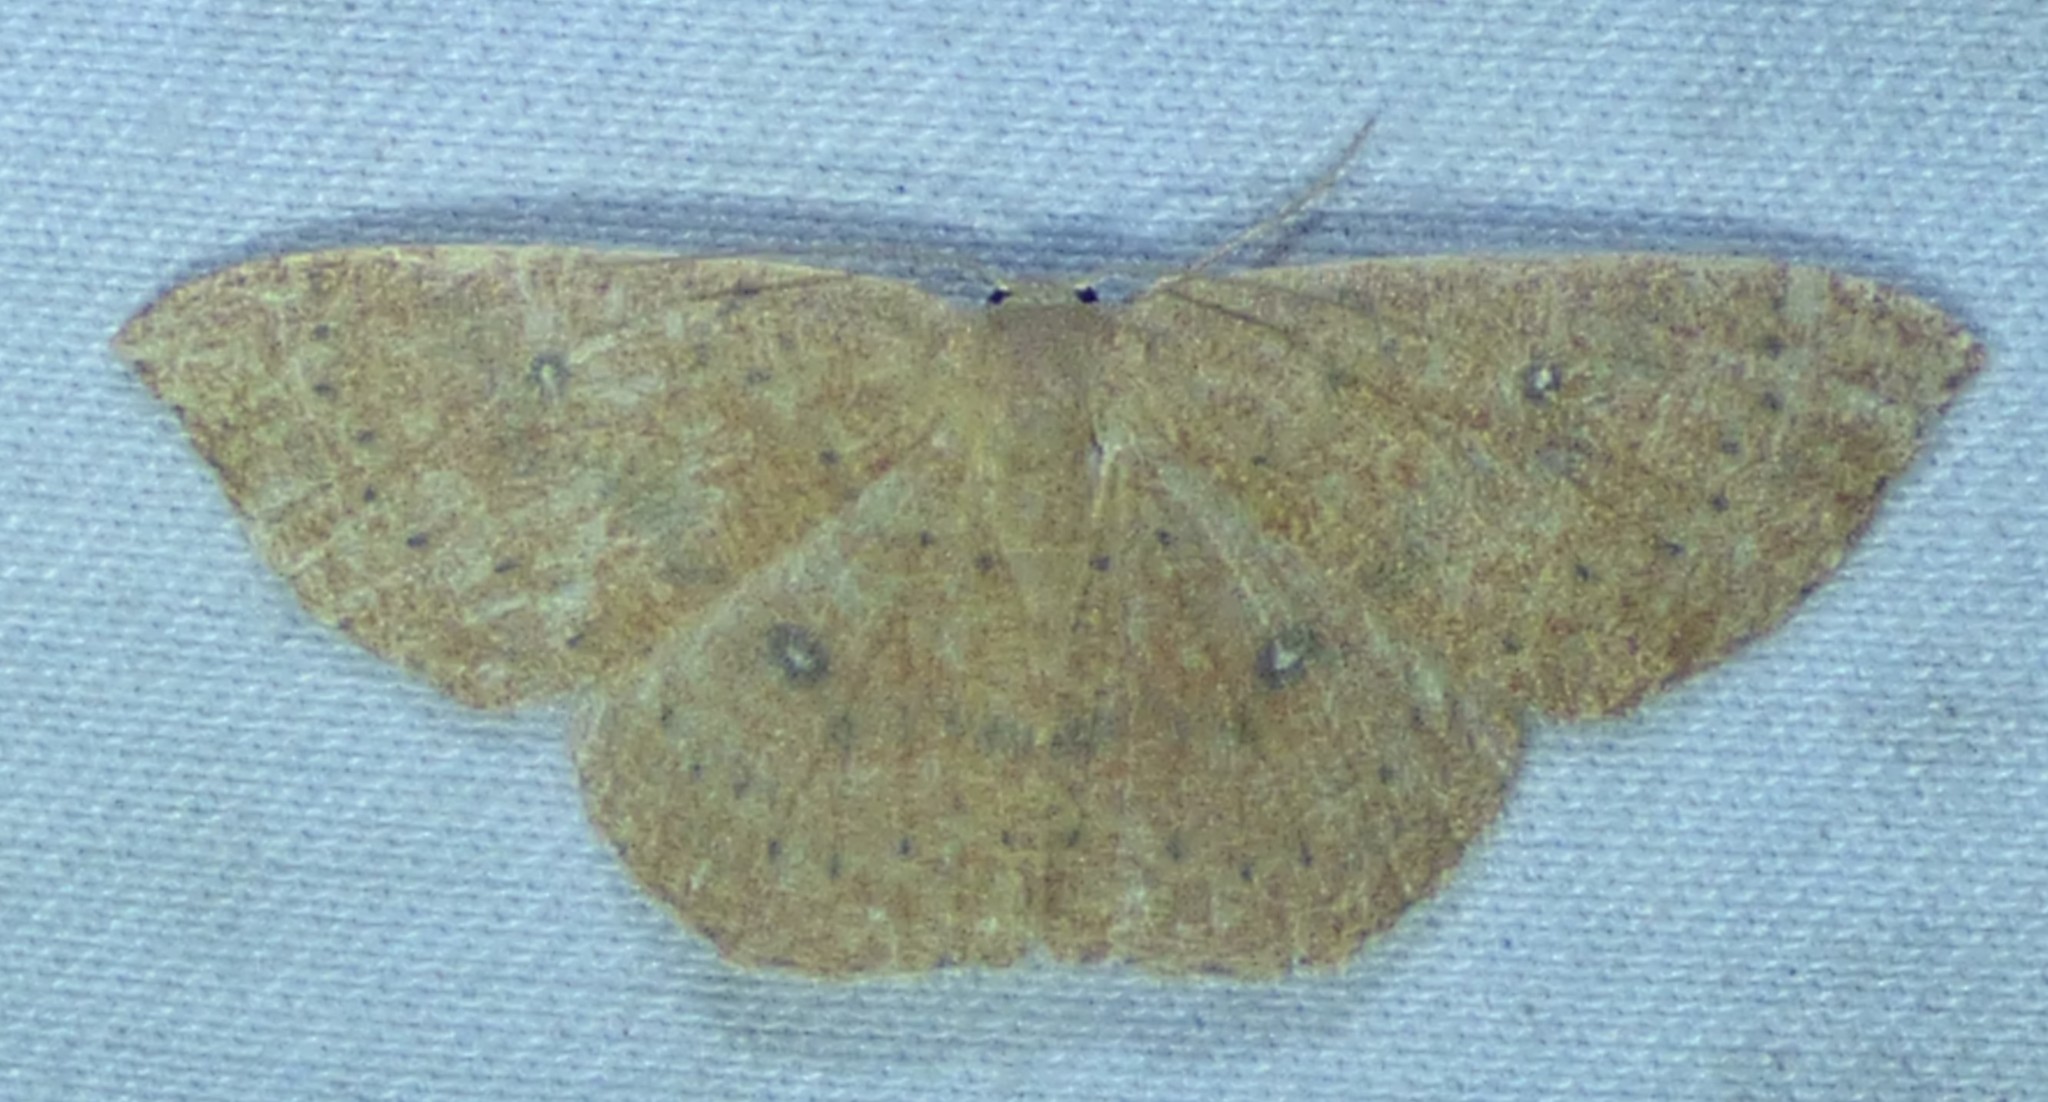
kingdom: Animalia
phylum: Arthropoda
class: Insecta
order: Lepidoptera
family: Geometridae
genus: Cyclophora
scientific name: Cyclophora packardi
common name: Packard's wave
